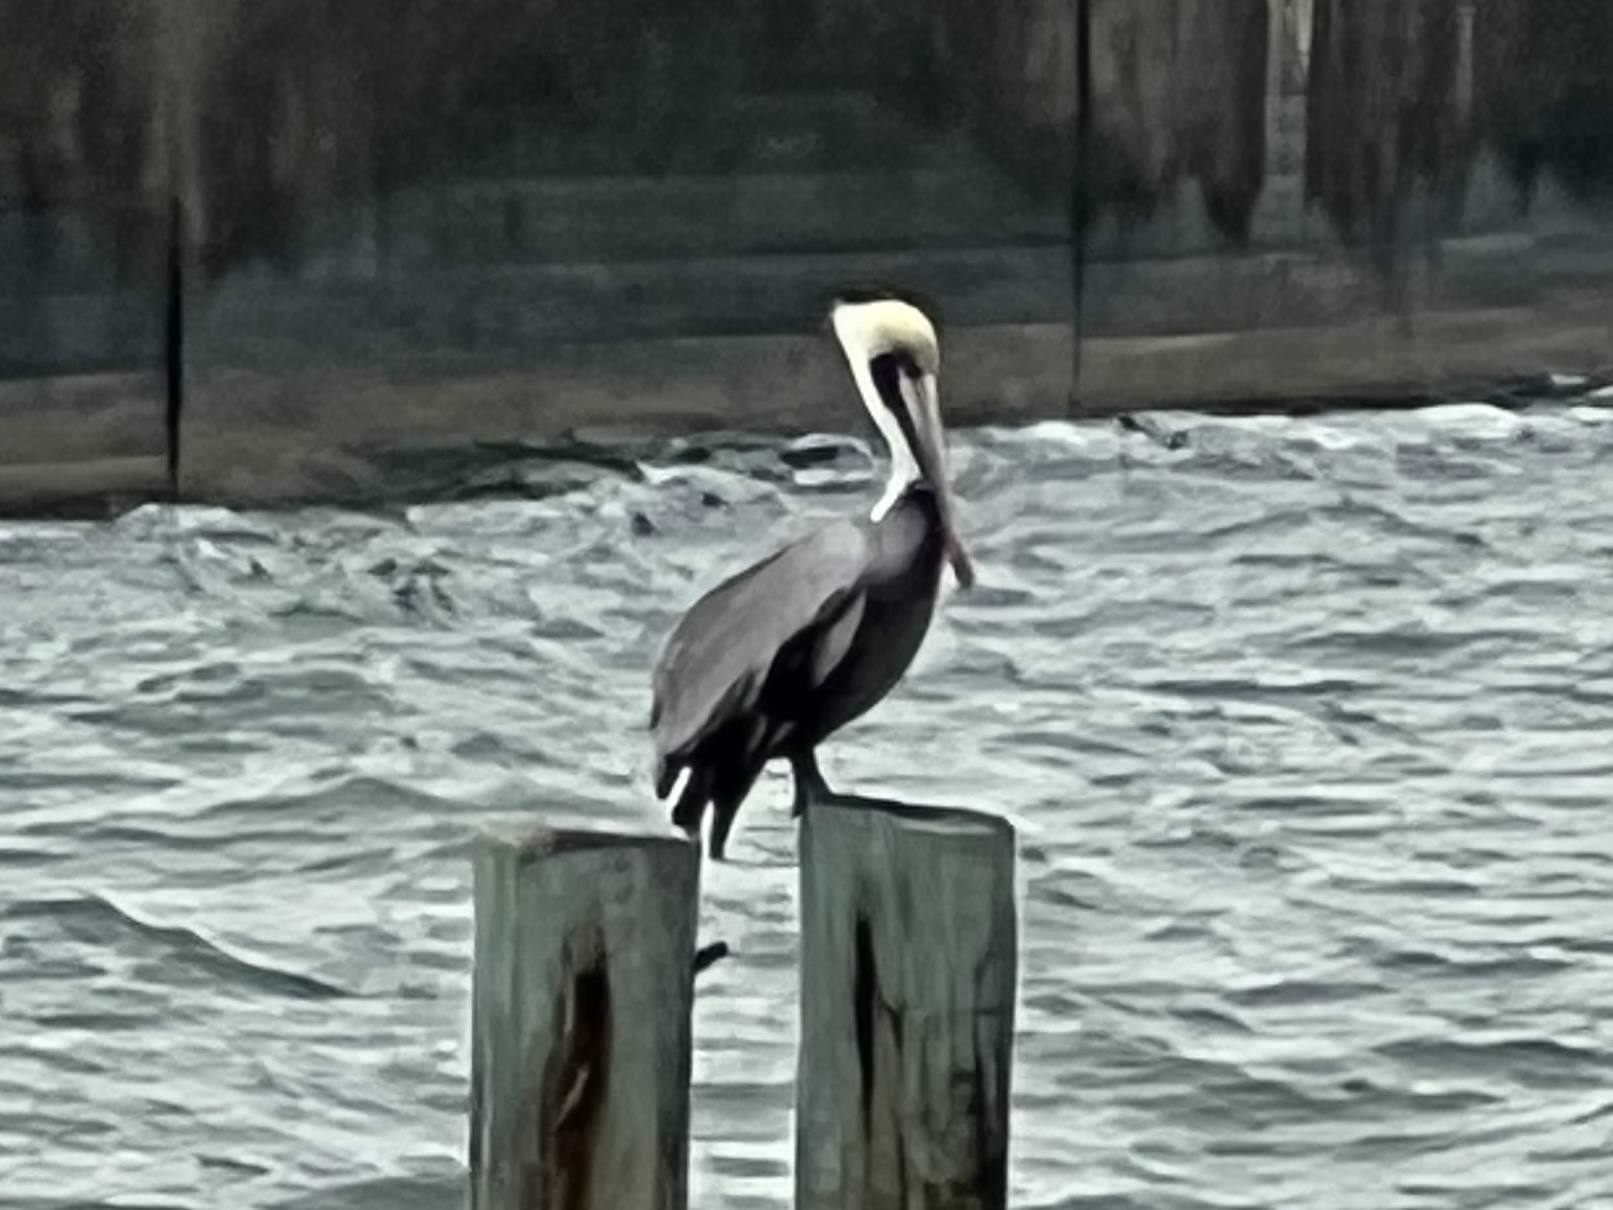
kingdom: Animalia
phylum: Chordata
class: Aves
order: Pelecaniformes
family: Pelecanidae
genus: Pelecanus
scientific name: Pelecanus occidentalis
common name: Brown pelican
